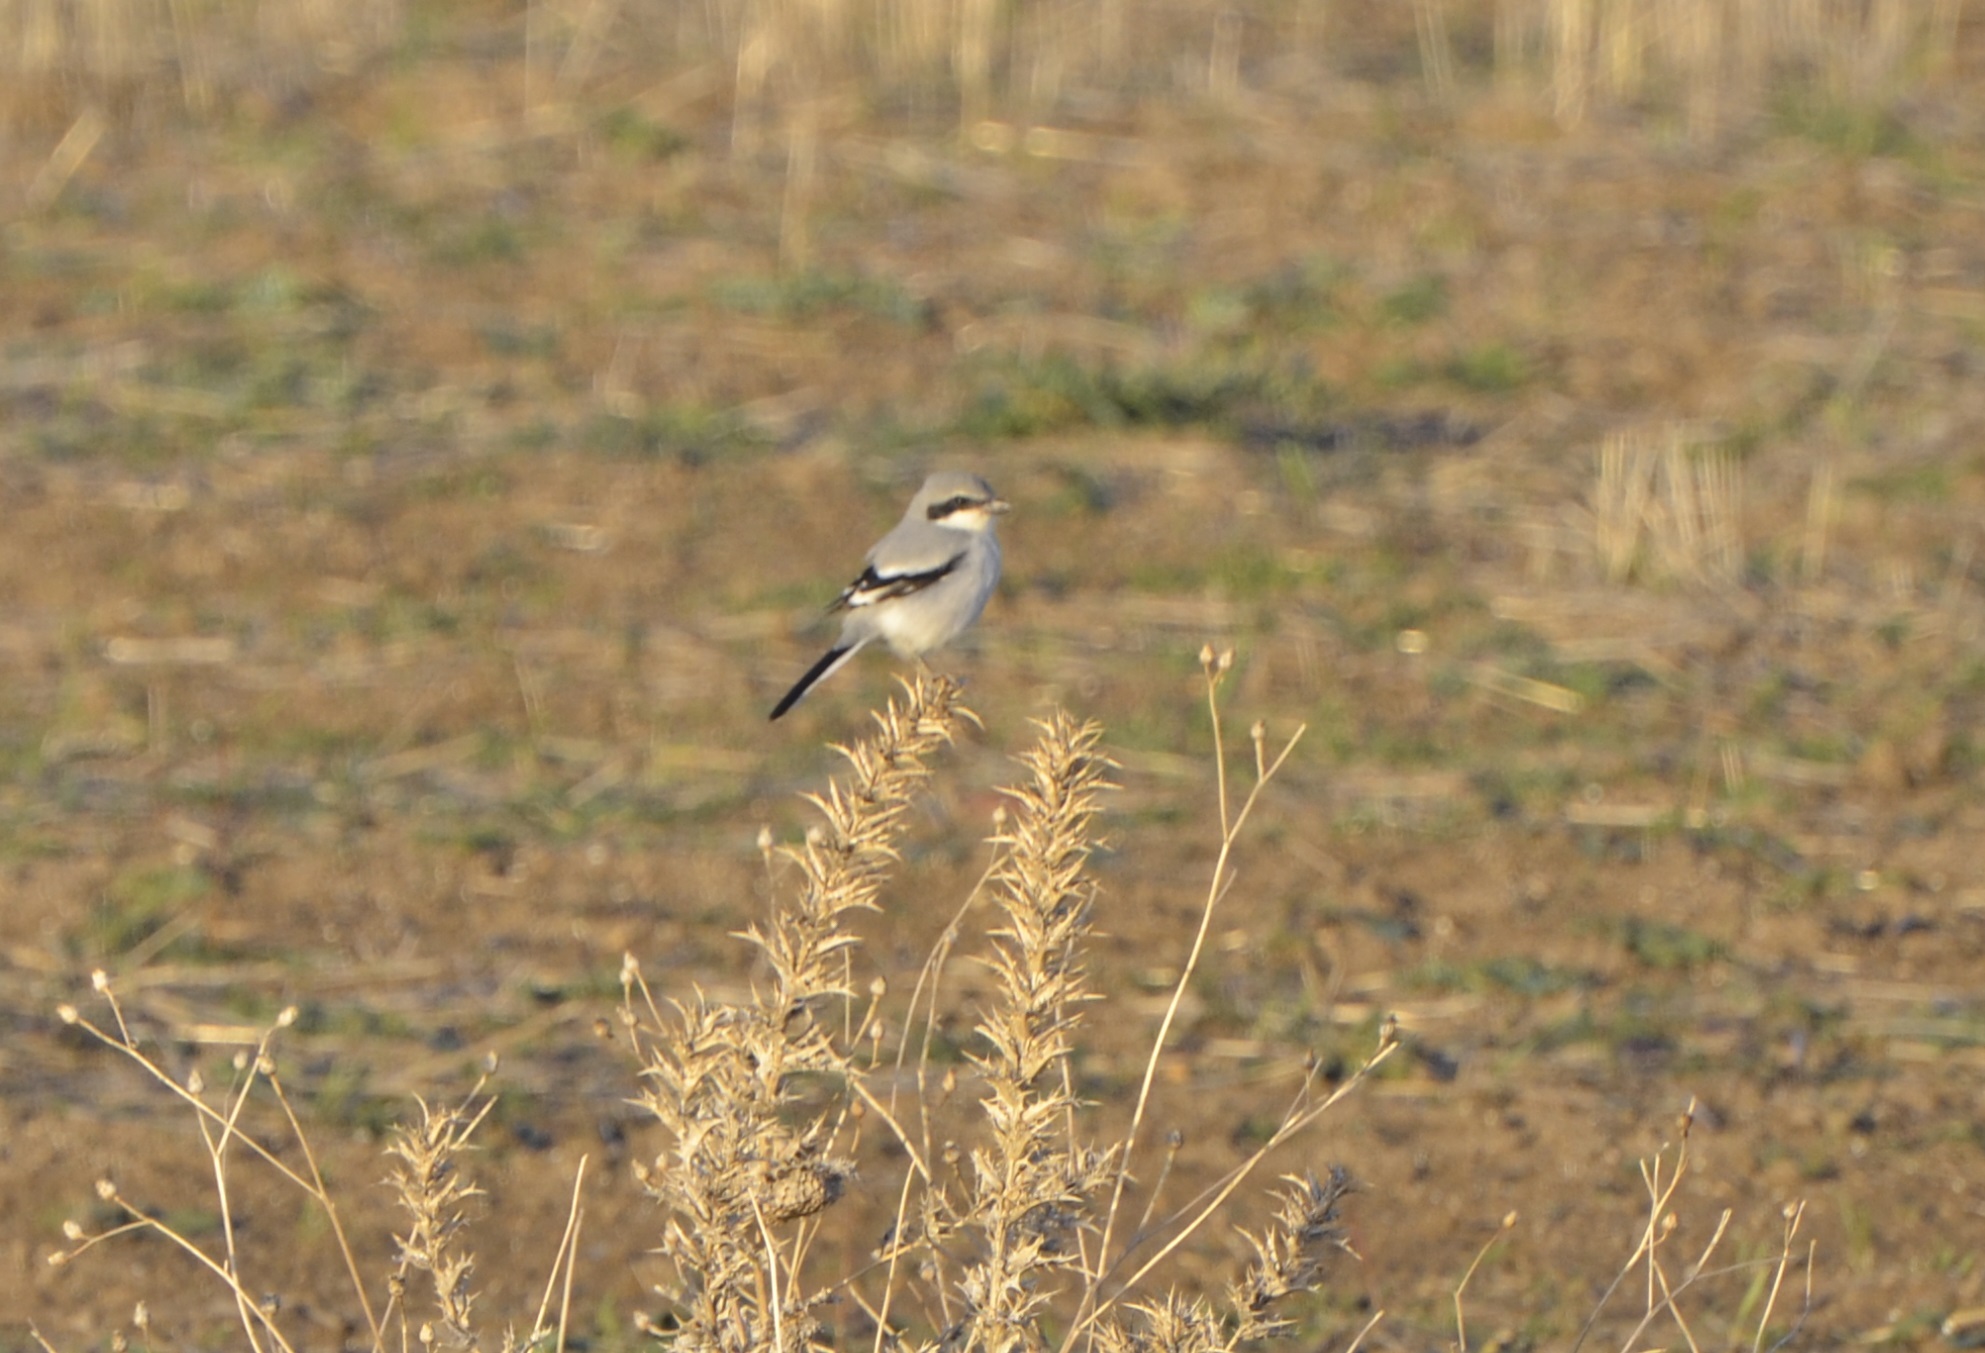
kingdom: Animalia
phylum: Chordata
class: Aves
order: Passeriformes
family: Laniidae
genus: Lanius
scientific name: Lanius excubitor
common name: Great grey shrike
